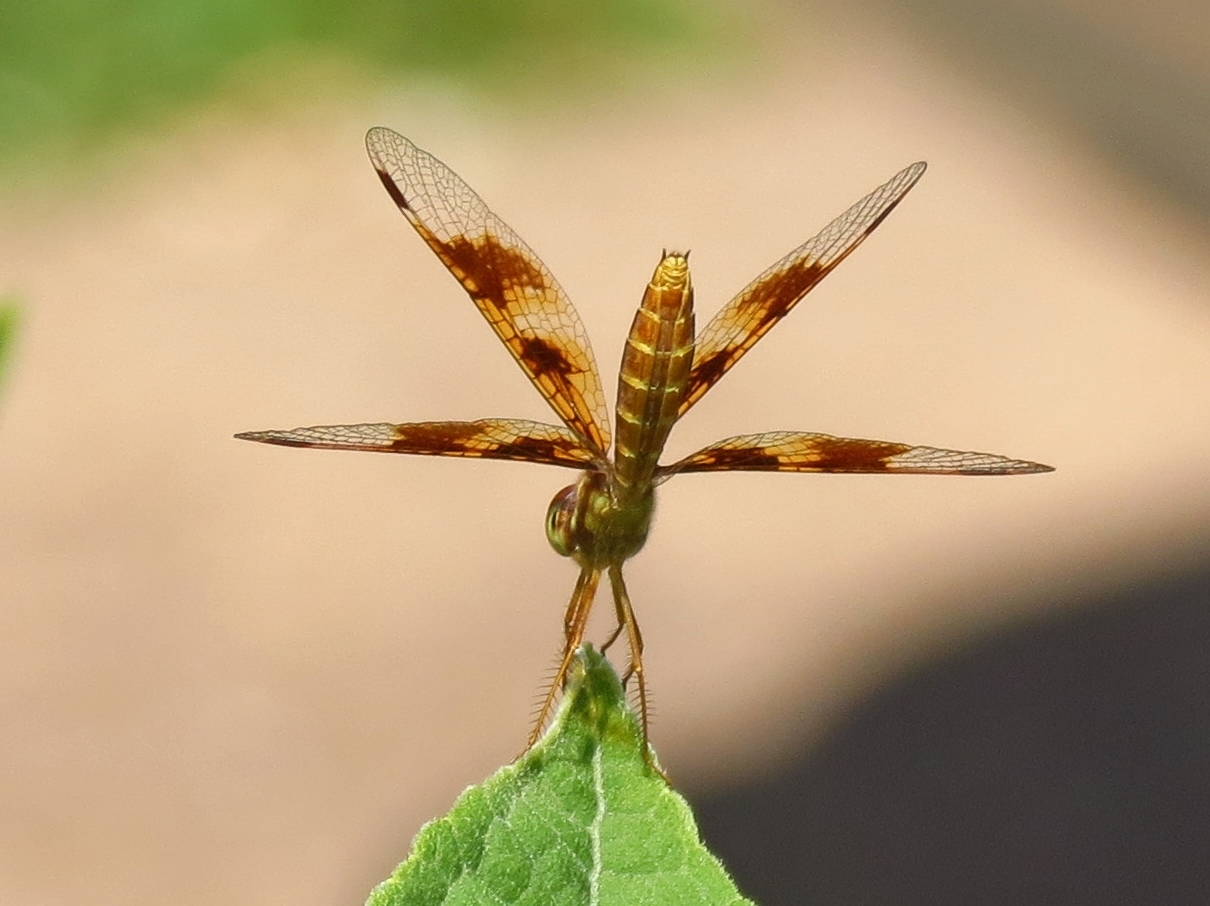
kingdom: Animalia
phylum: Arthropoda
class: Insecta
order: Odonata
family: Libellulidae
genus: Perithemis
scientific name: Perithemis tenera
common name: Eastern amberwing
